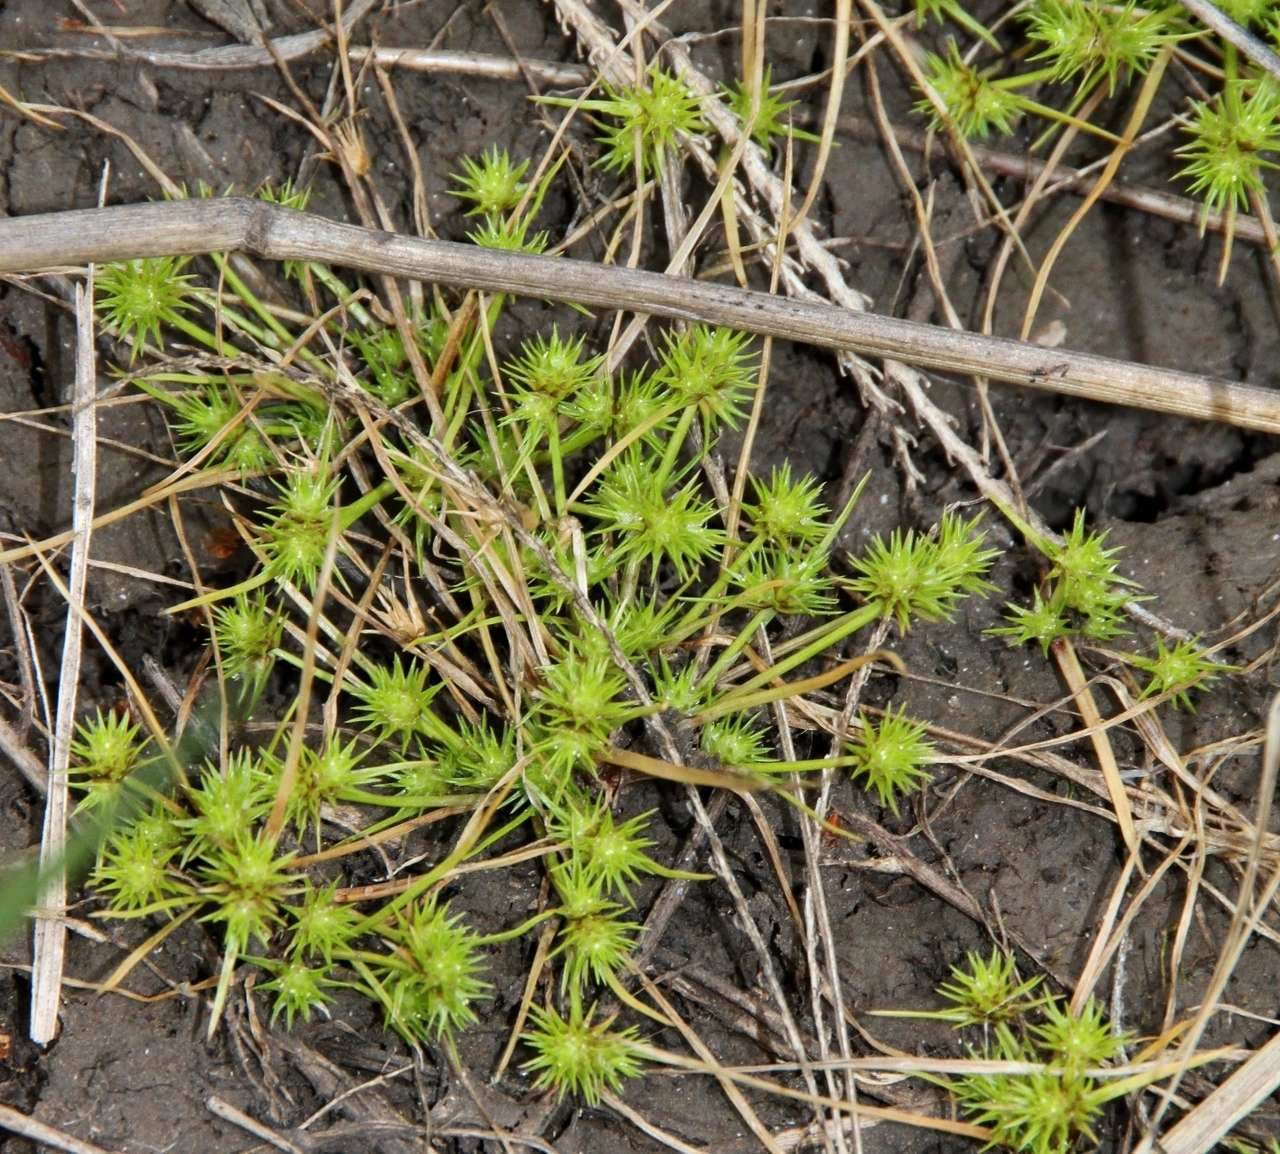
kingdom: Plantae
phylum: Tracheophyta
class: Liliopsida
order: Poales
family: Cyperaceae
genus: Isolepis
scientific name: Isolepis hystrix
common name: Bottlebrush bulrush
